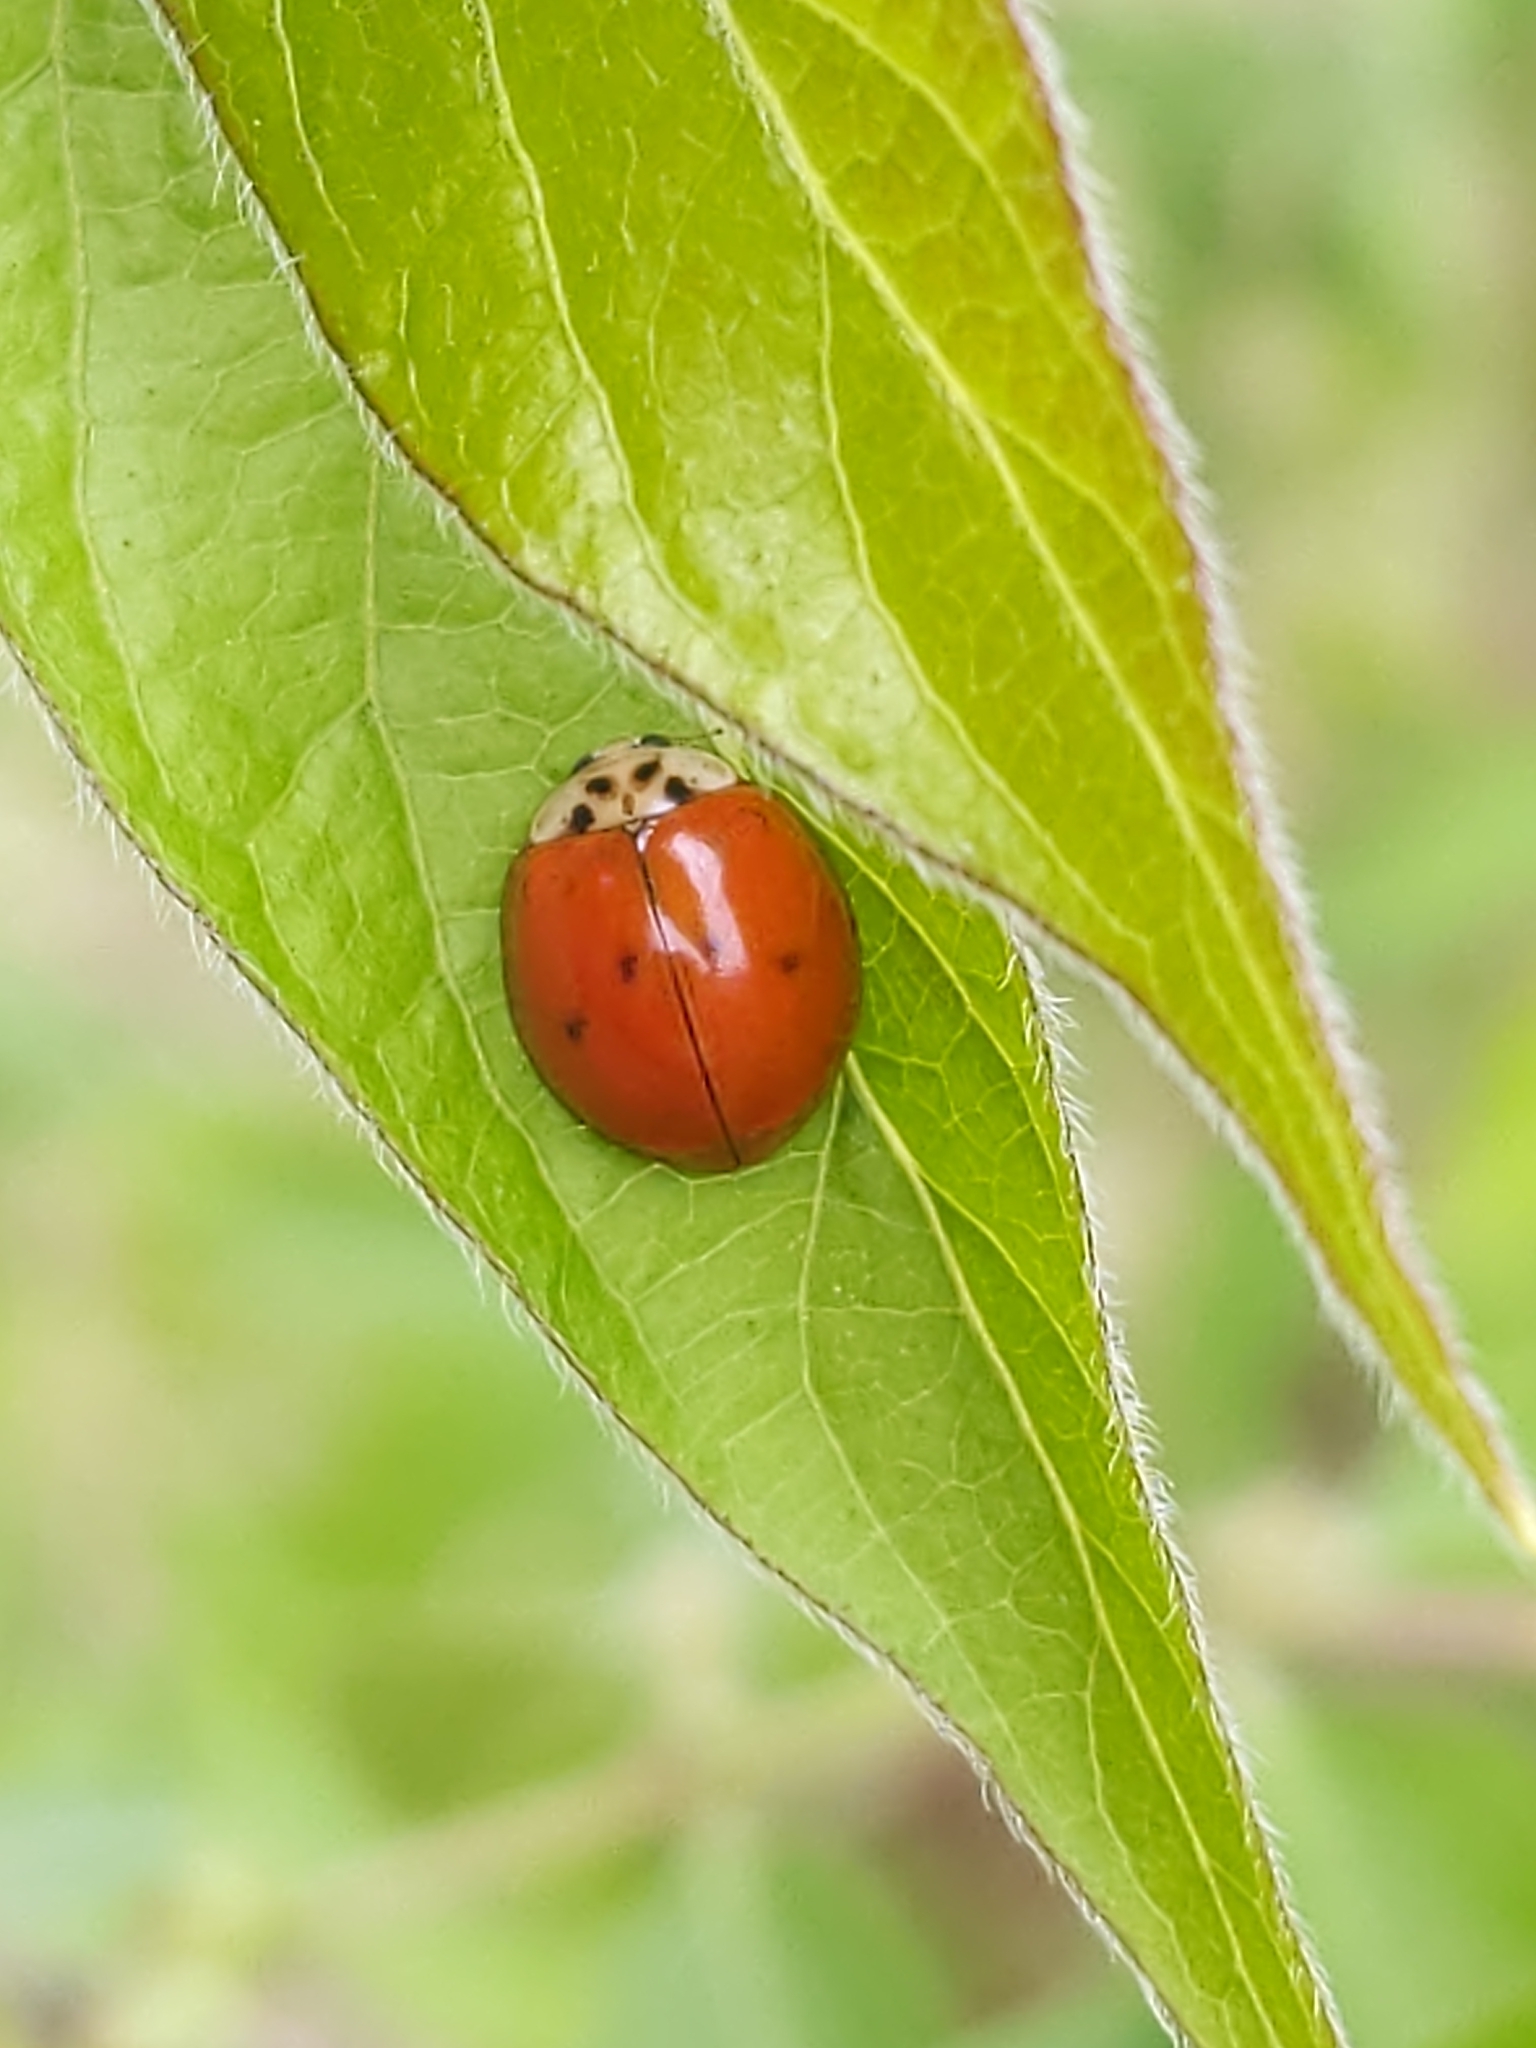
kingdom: Animalia
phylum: Arthropoda
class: Insecta
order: Coleoptera
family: Coccinellidae
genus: Harmonia
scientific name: Harmonia axyridis
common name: Harlequin ladybird
